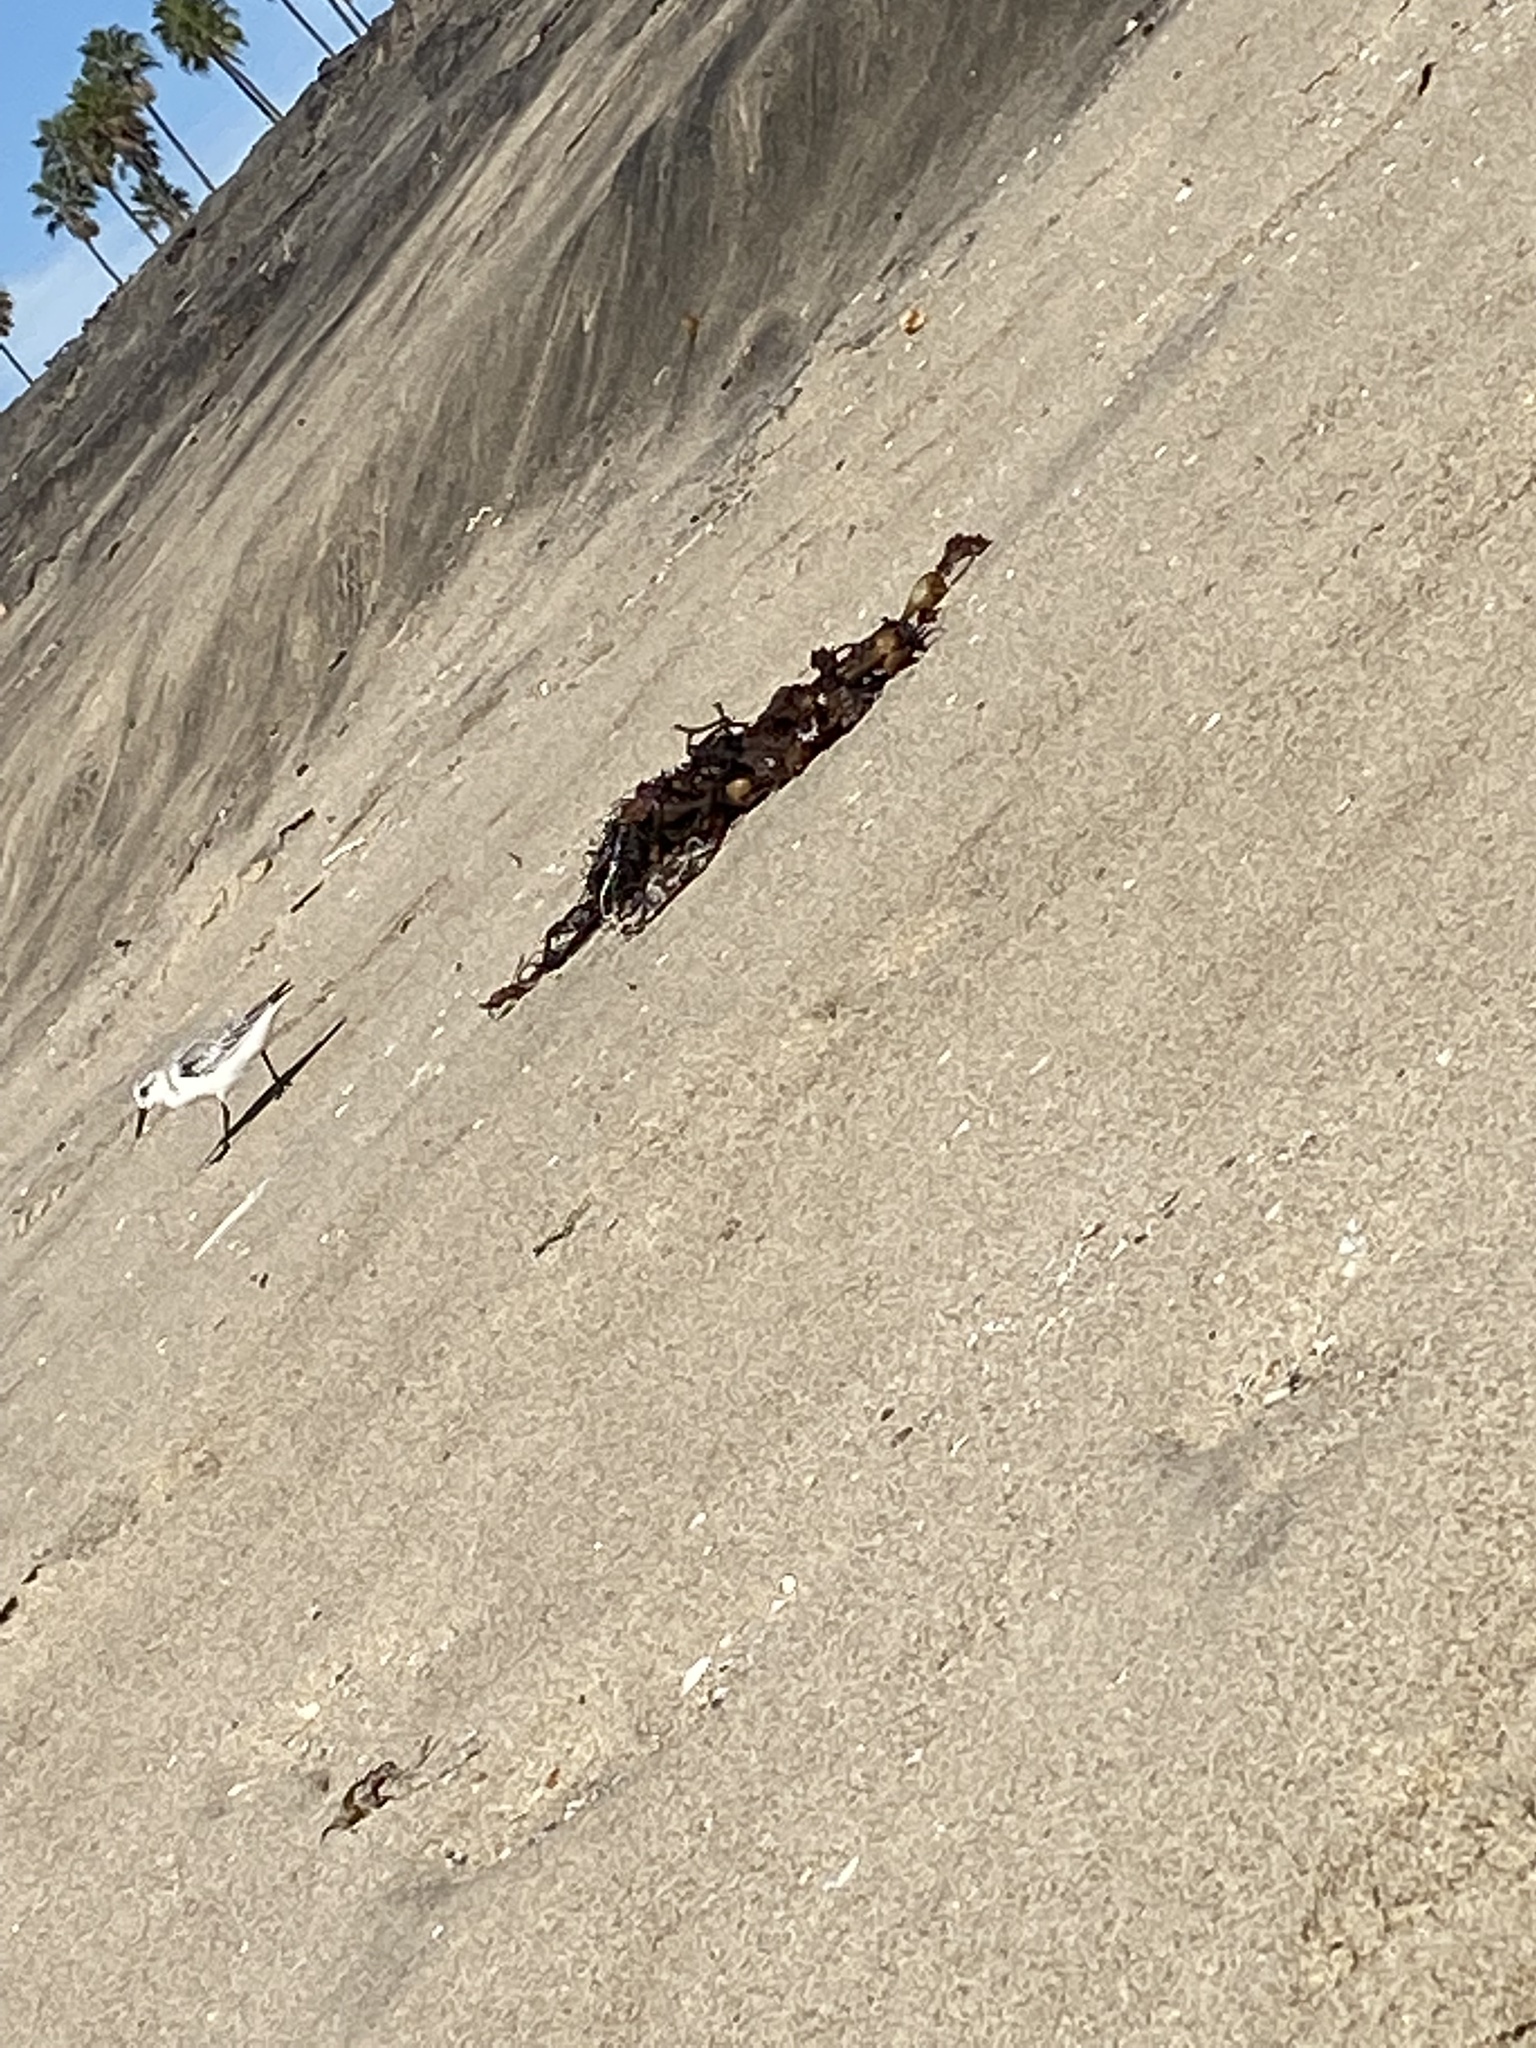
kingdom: Animalia
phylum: Chordata
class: Aves
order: Charadriiformes
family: Scolopacidae
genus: Calidris
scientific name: Calidris alba
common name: Sanderling
